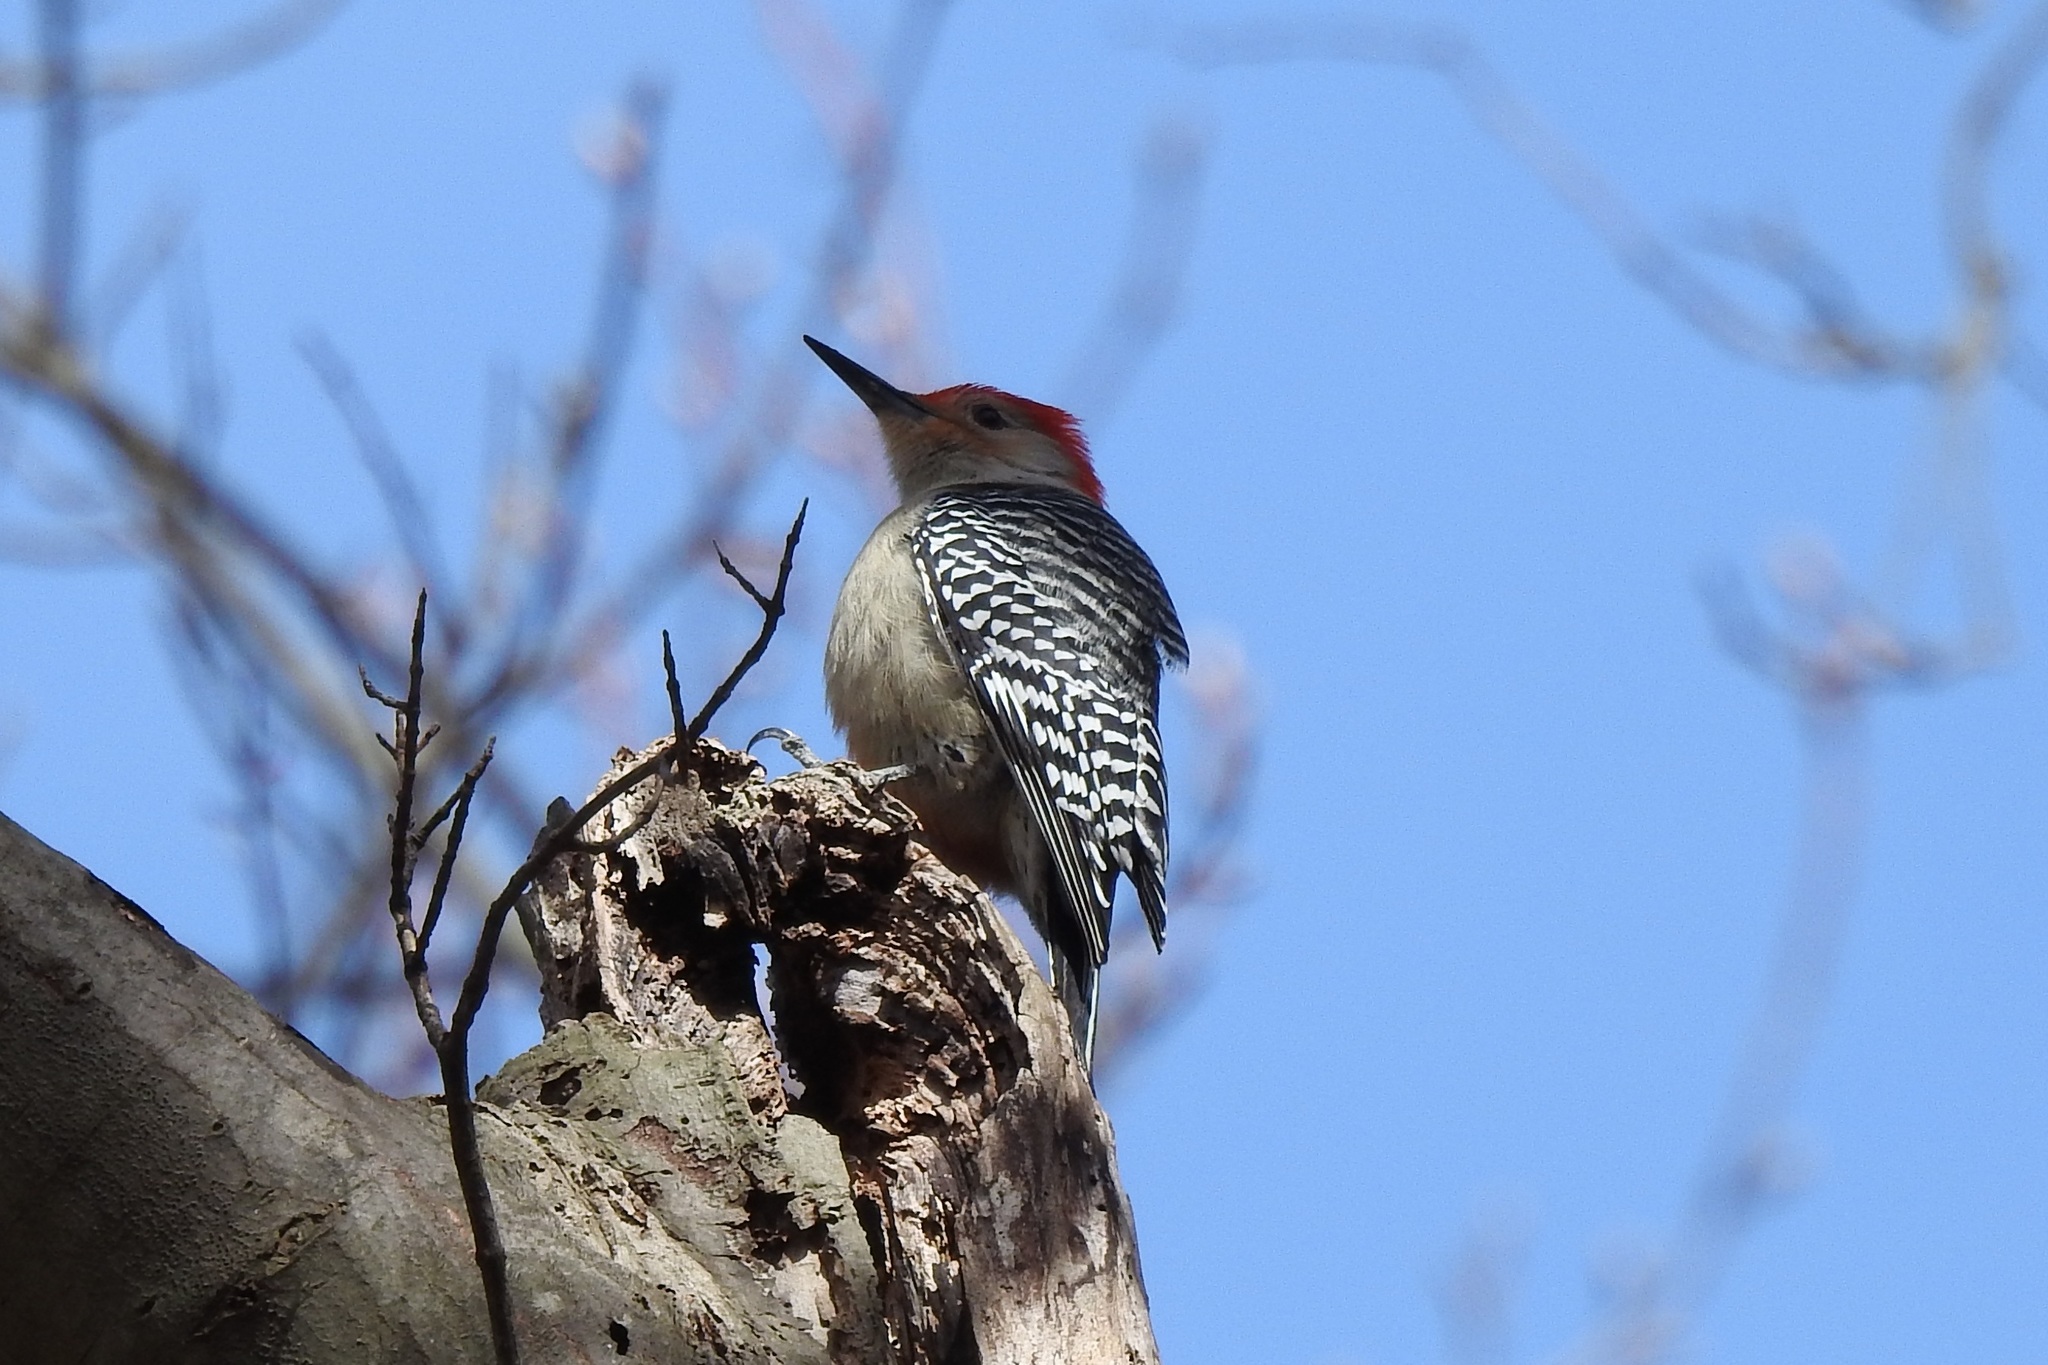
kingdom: Animalia
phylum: Chordata
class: Aves
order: Piciformes
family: Picidae
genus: Melanerpes
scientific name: Melanerpes carolinus
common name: Red-bellied woodpecker
